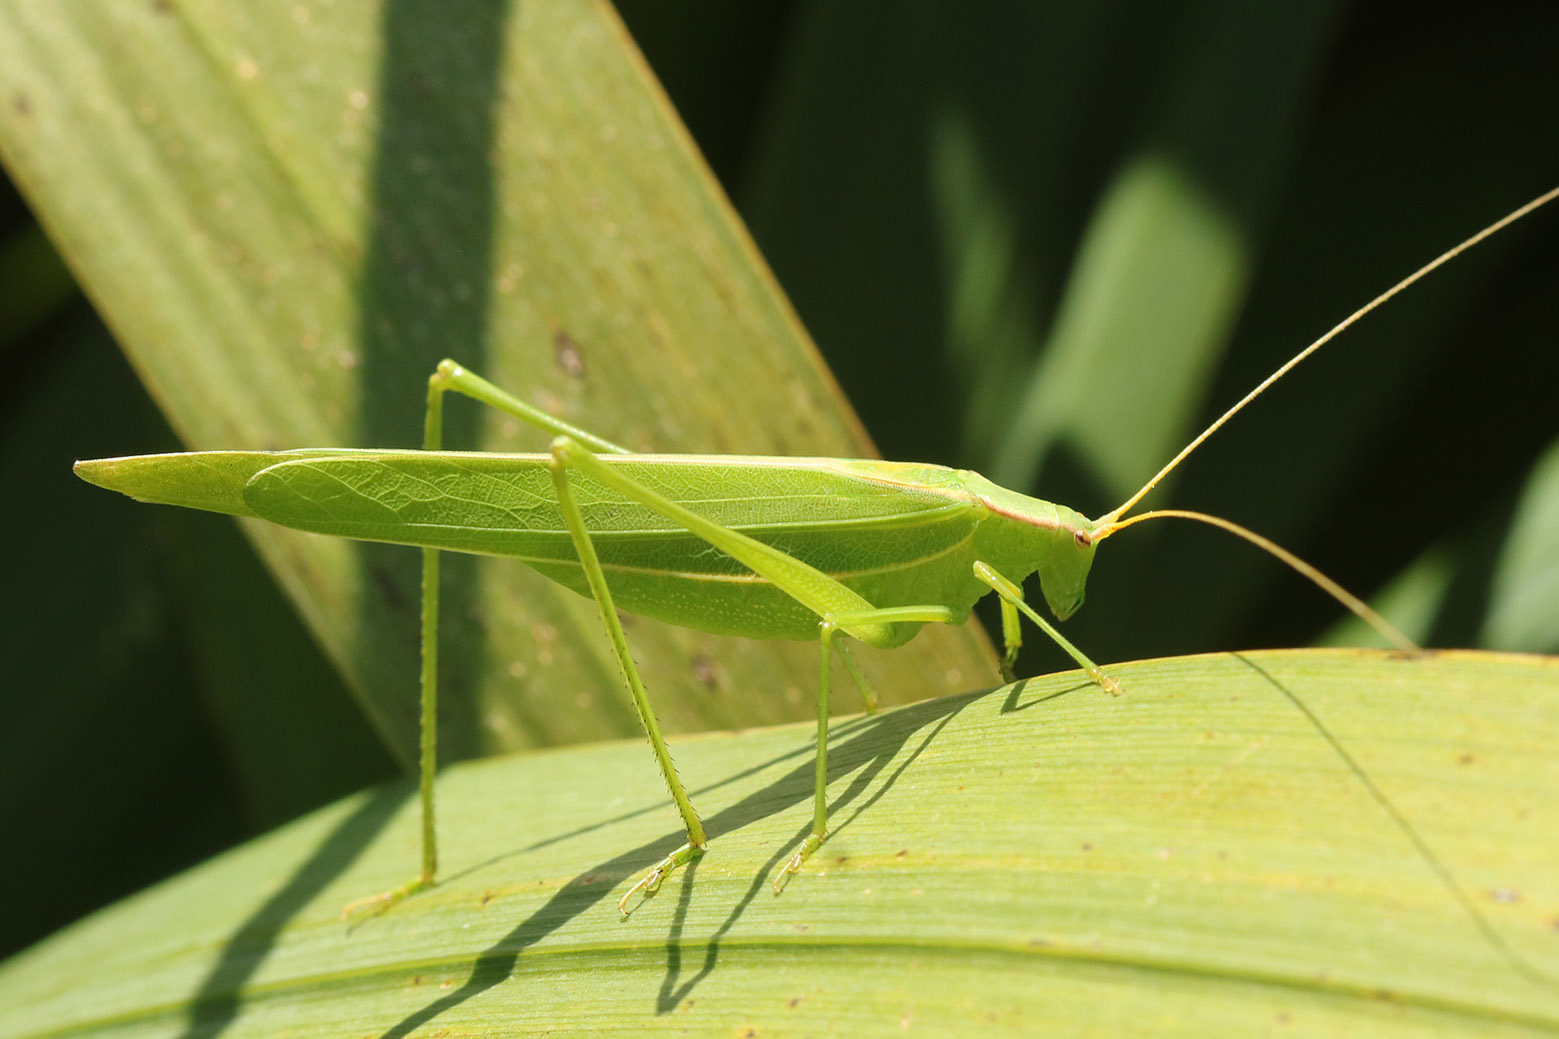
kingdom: Animalia
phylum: Arthropoda
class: Insecta
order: Orthoptera
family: Tettigoniidae
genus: Hyperophora
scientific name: Hyperophora major
